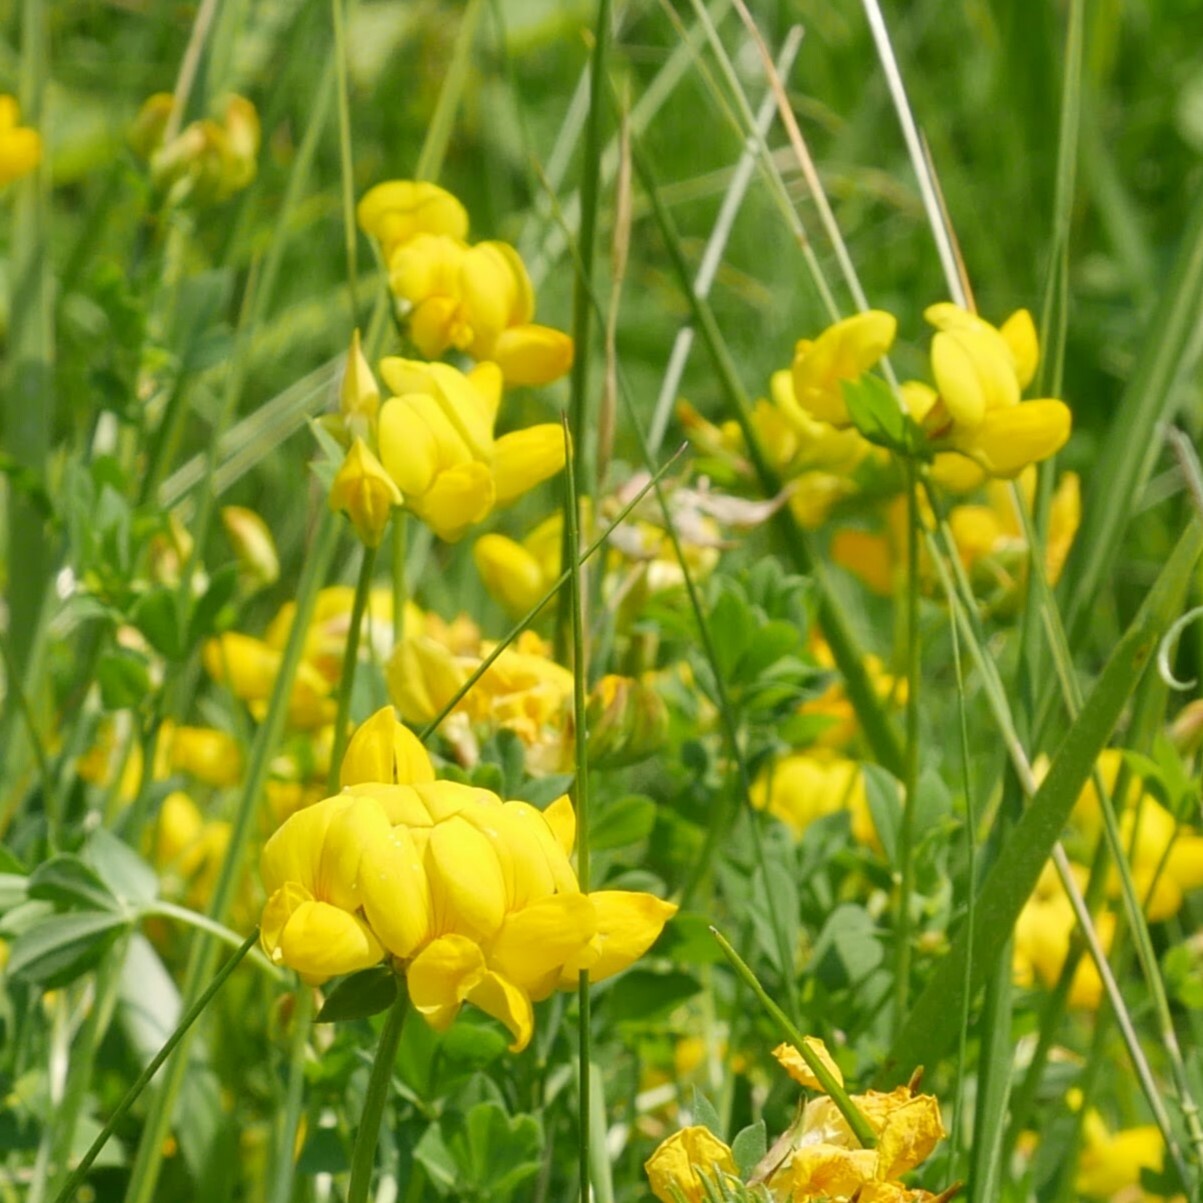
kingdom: Plantae
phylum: Tracheophyta
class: Magnoliopsida
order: Fabales
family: Fabaceae
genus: Lotus
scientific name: Lotus corniculatus
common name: Common bird's-foot-trefoil
